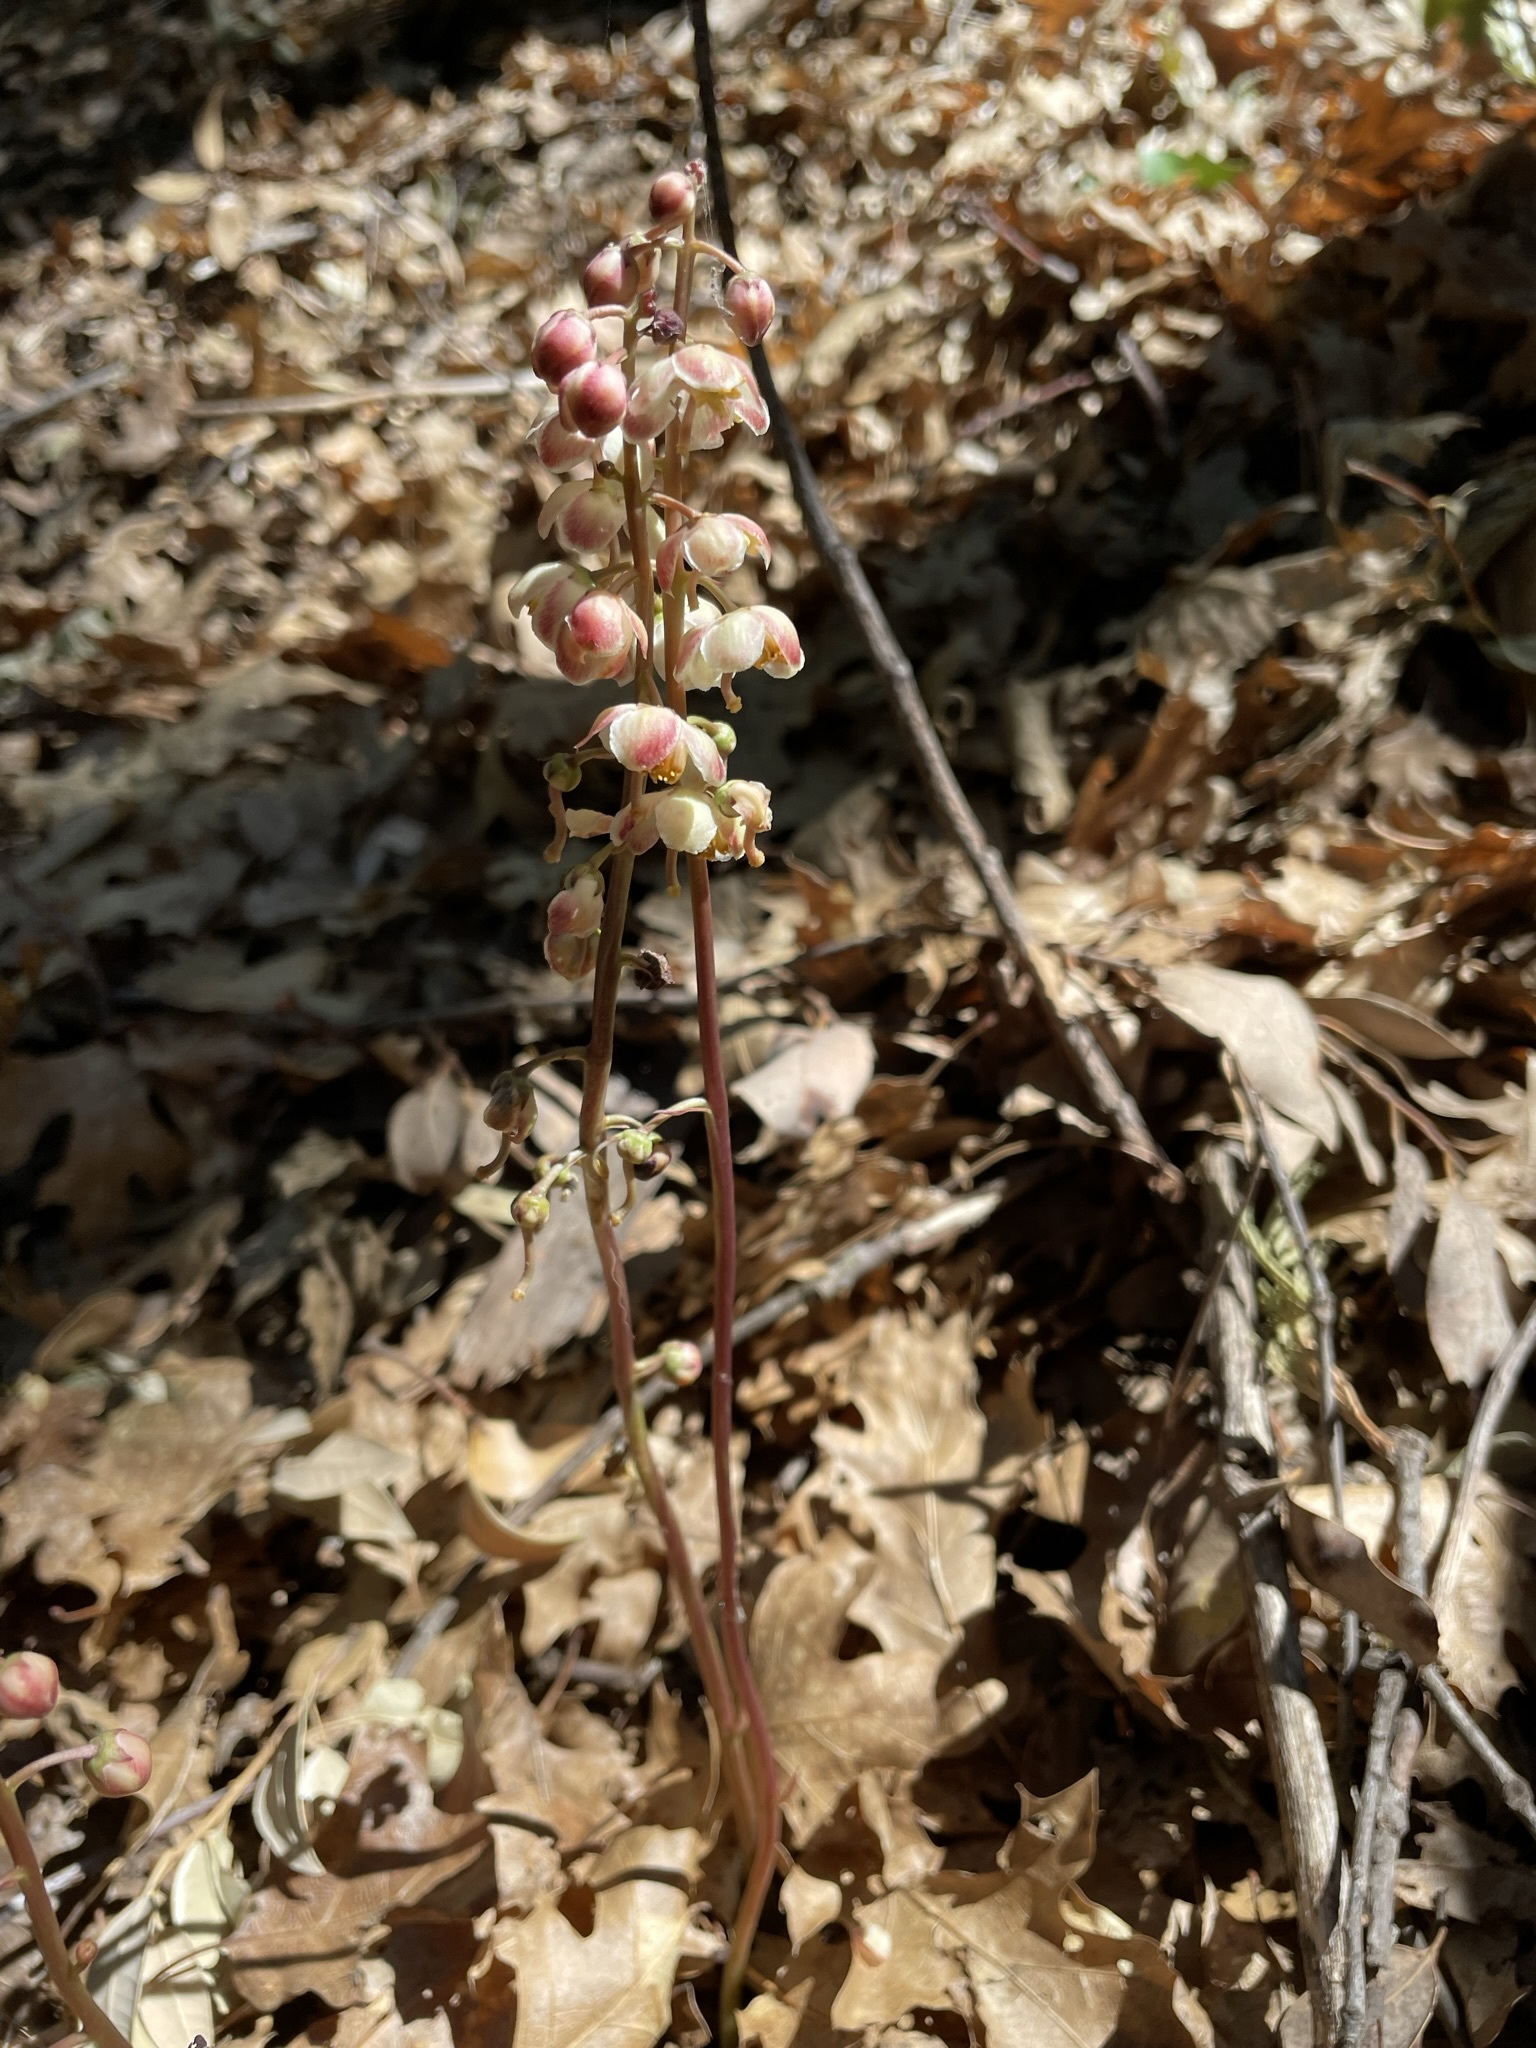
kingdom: Plantae
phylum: Tracheophyta
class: Magnoliopsida
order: Ericales
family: Ericaceae
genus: Pyrola
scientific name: Pyrola aphylla
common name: Leafless wintergreen
